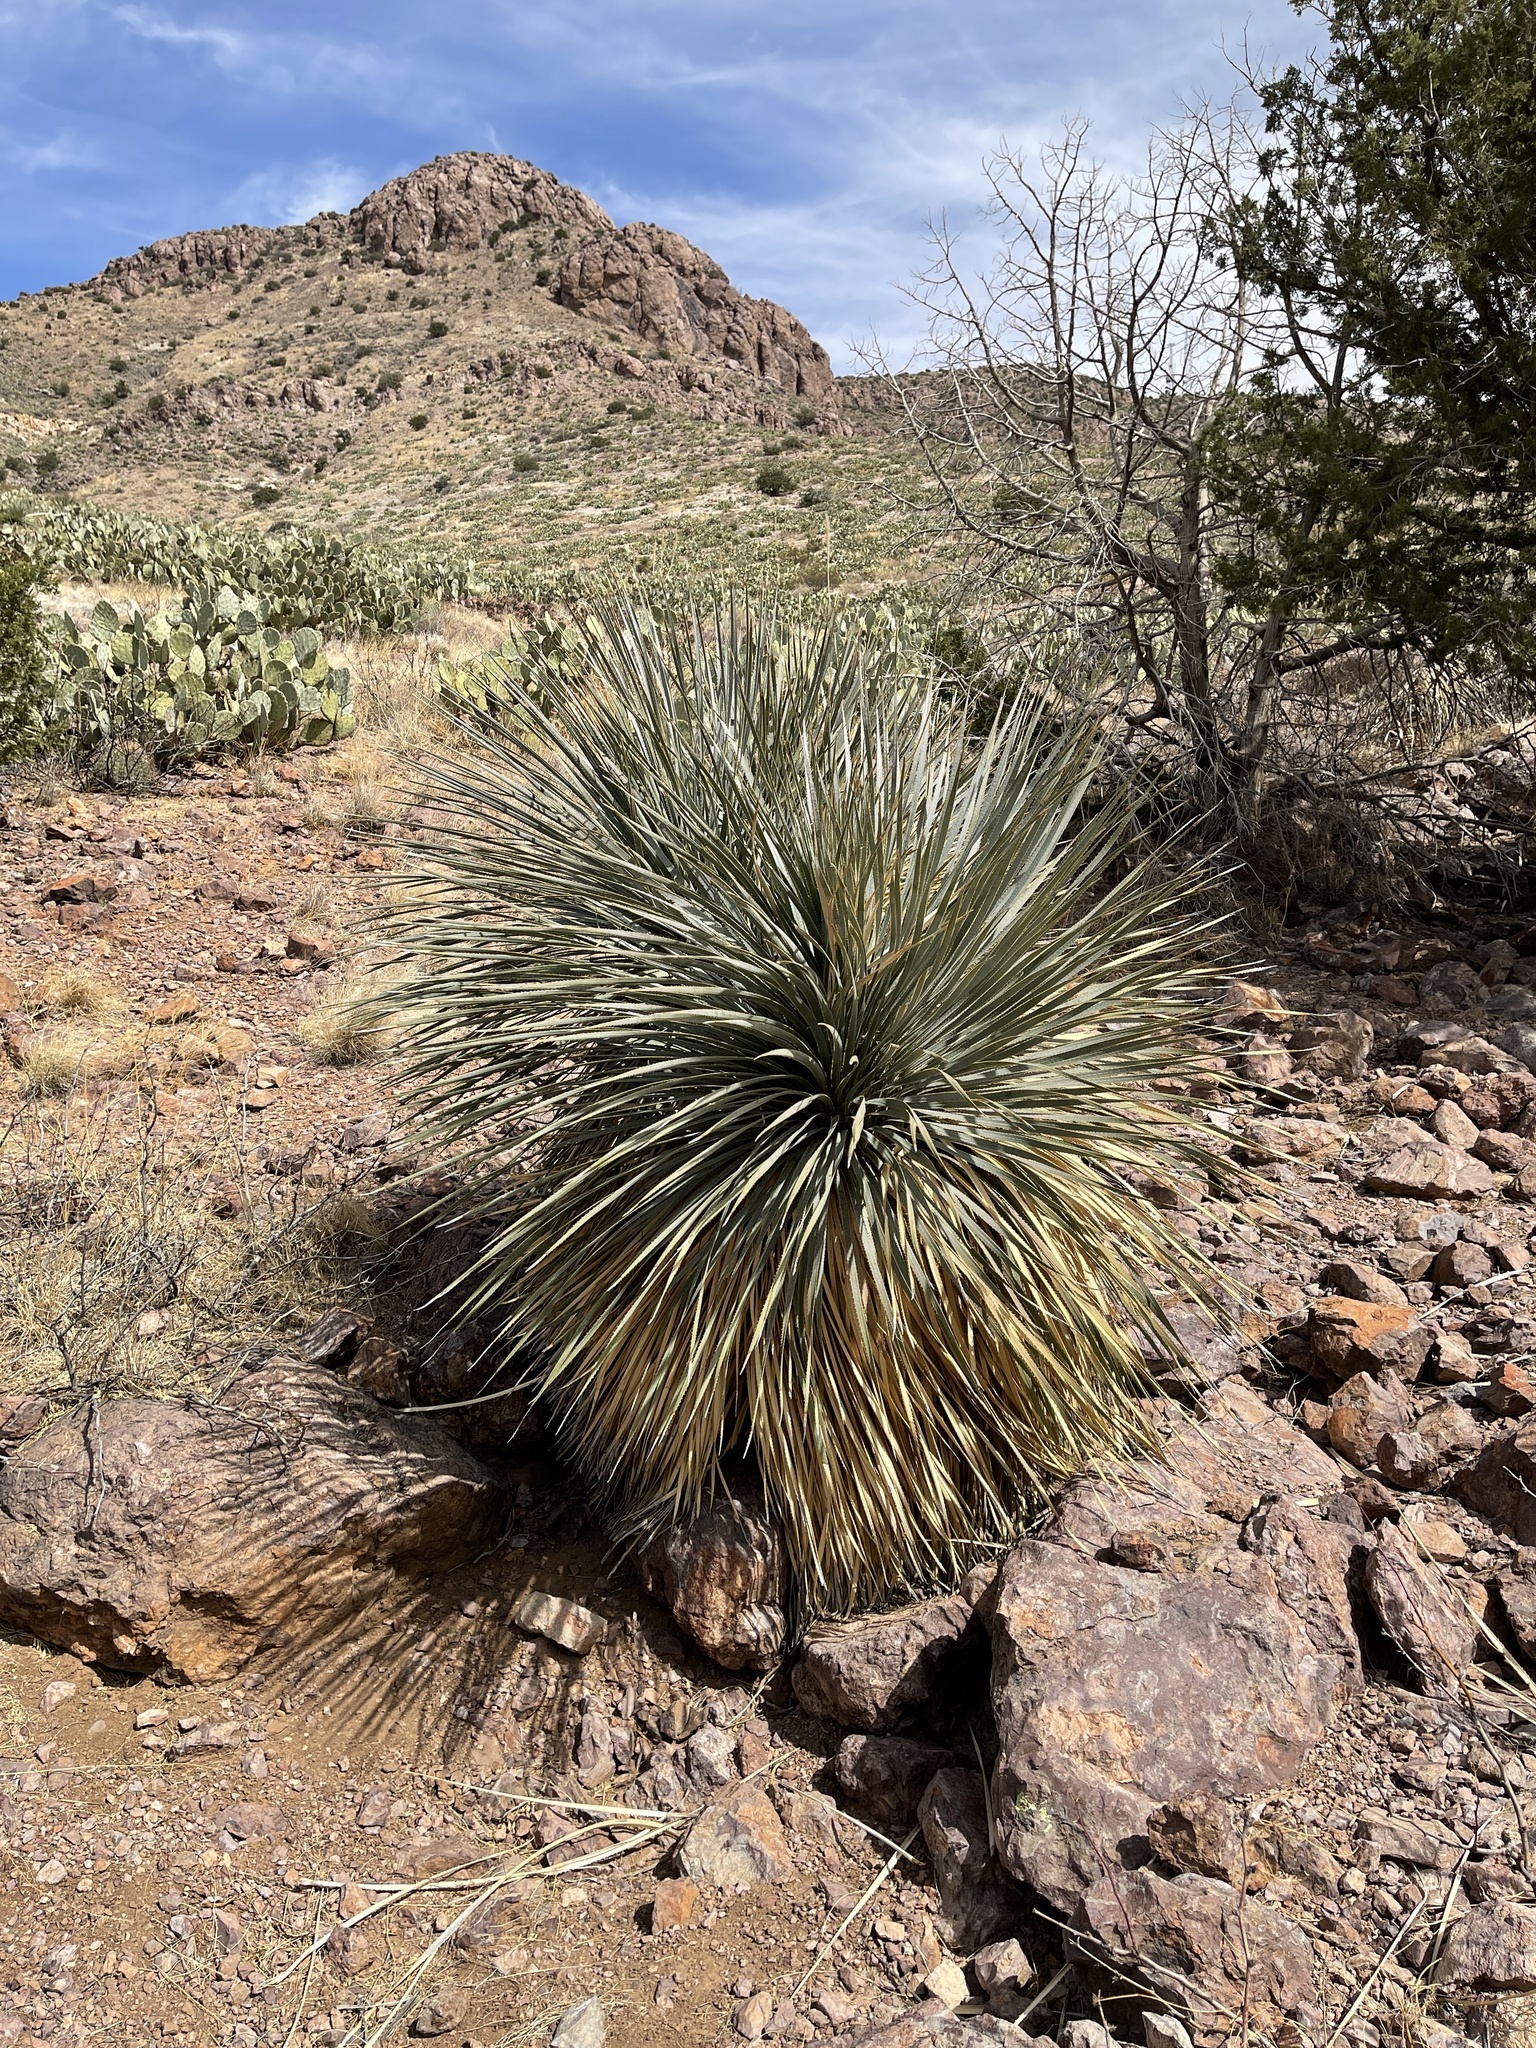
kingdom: Plantae
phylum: Tracheophyta
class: Liliopsida
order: Asparagales
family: Asparagaceae
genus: Dasylirion
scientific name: Dasylirion wheeleri
